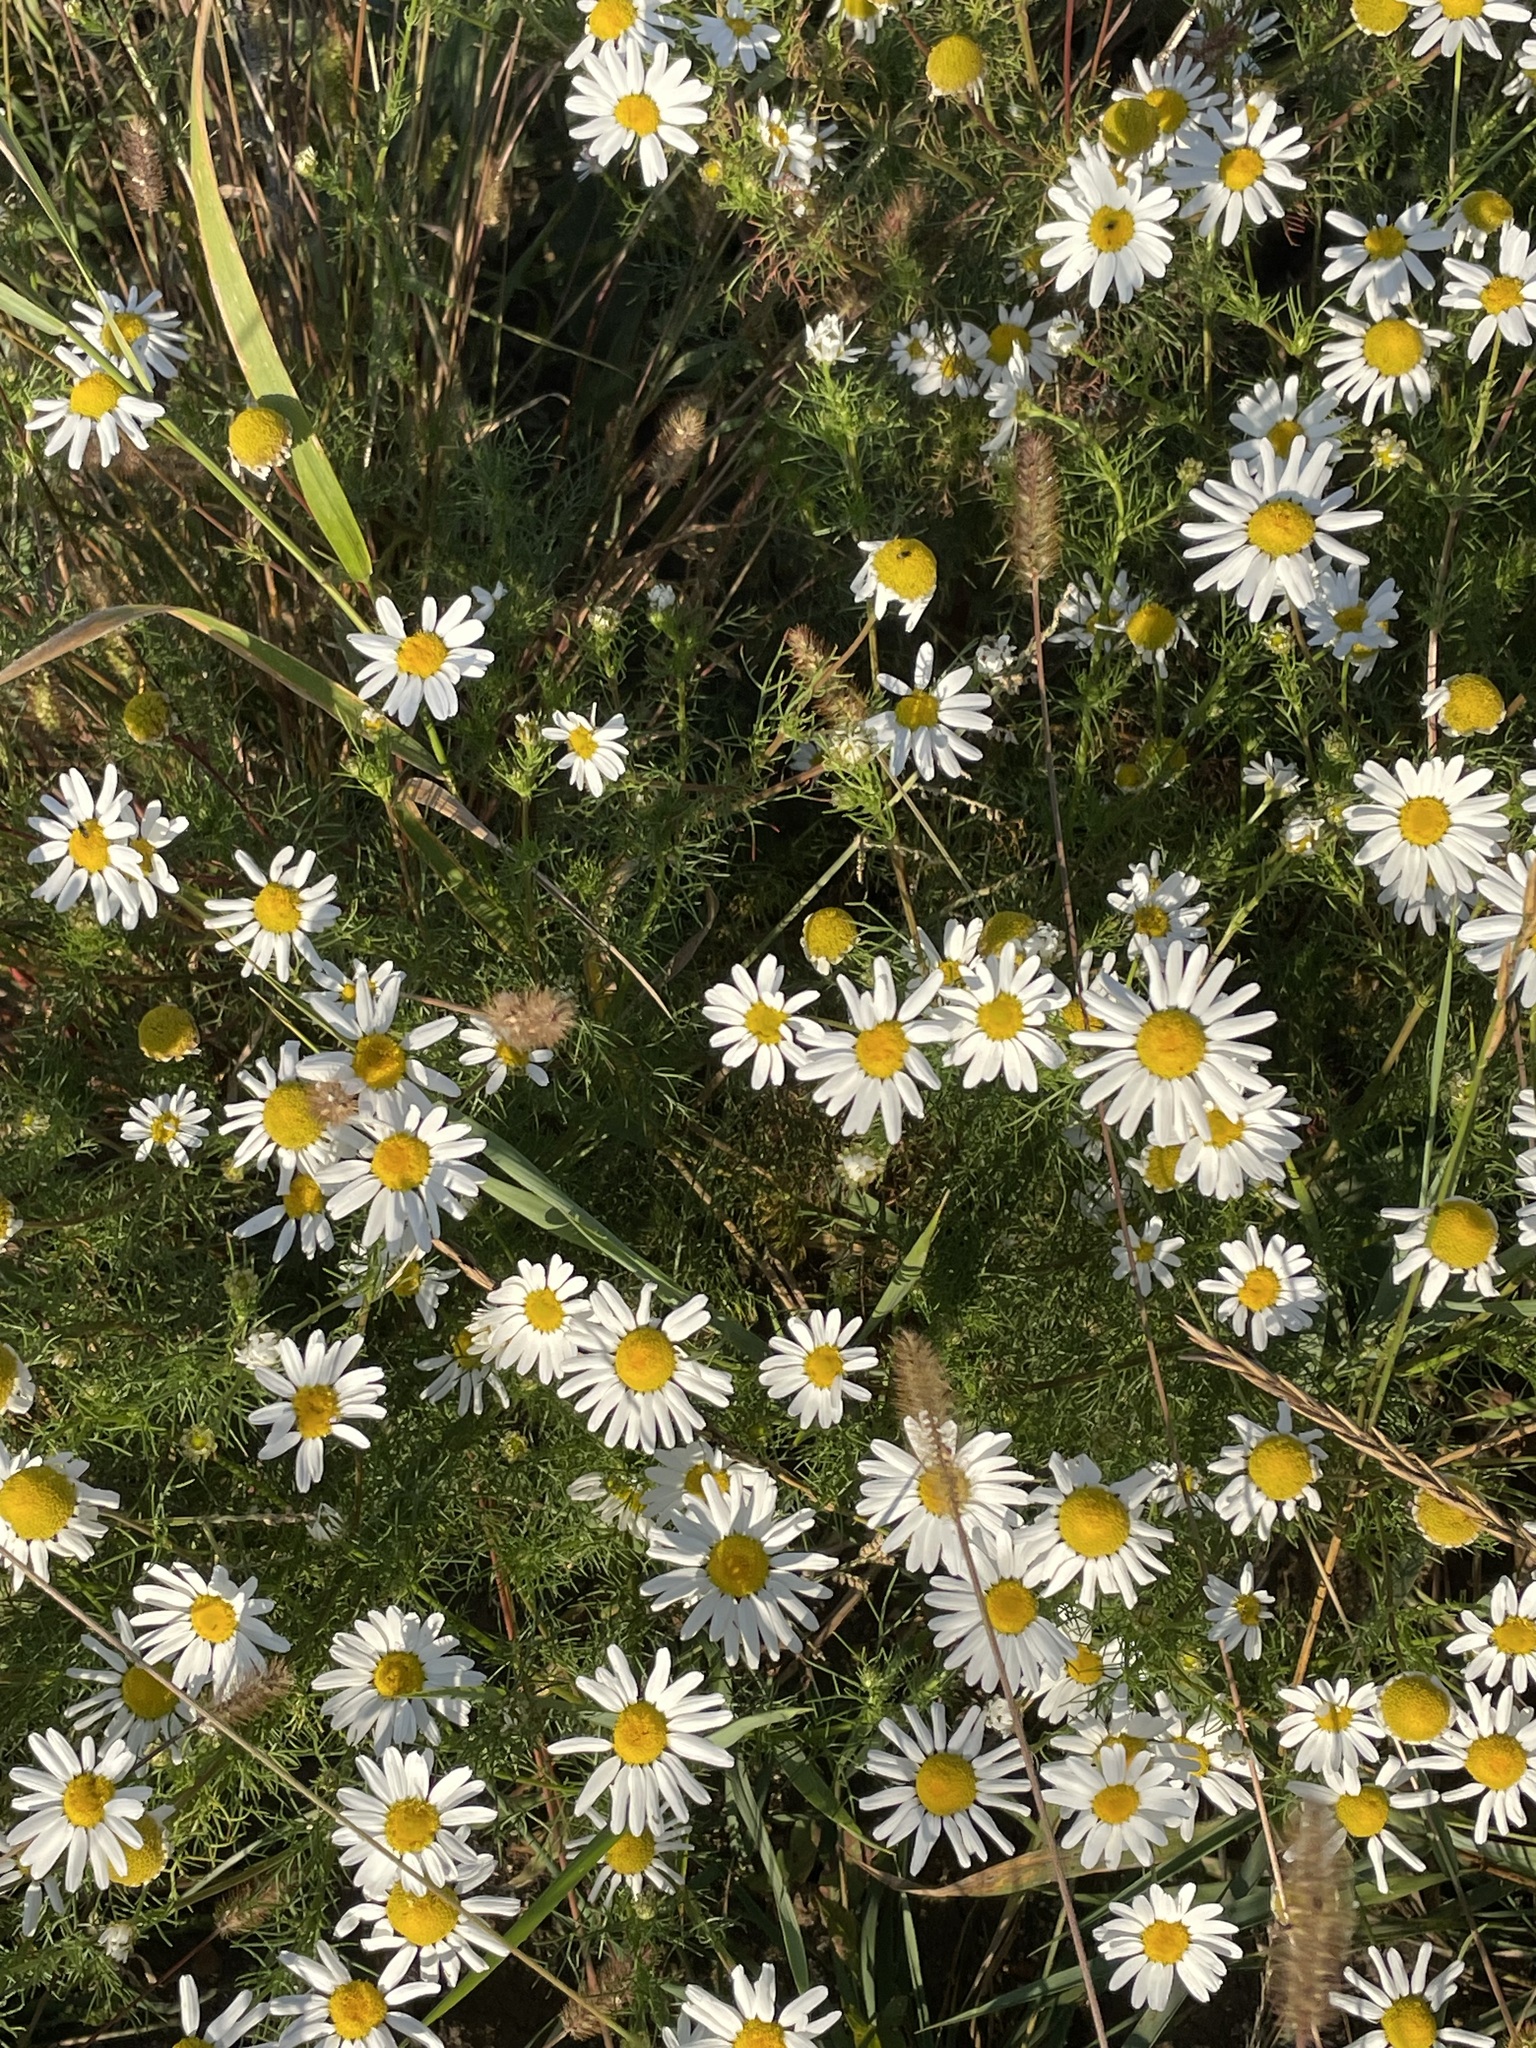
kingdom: Plantae
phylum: Tracheophyta
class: Magnoliopsida
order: Asterales
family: Asteraceae
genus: Tripleurospermum
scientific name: Tripleurospermum inodorum
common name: Scentless mayweed
